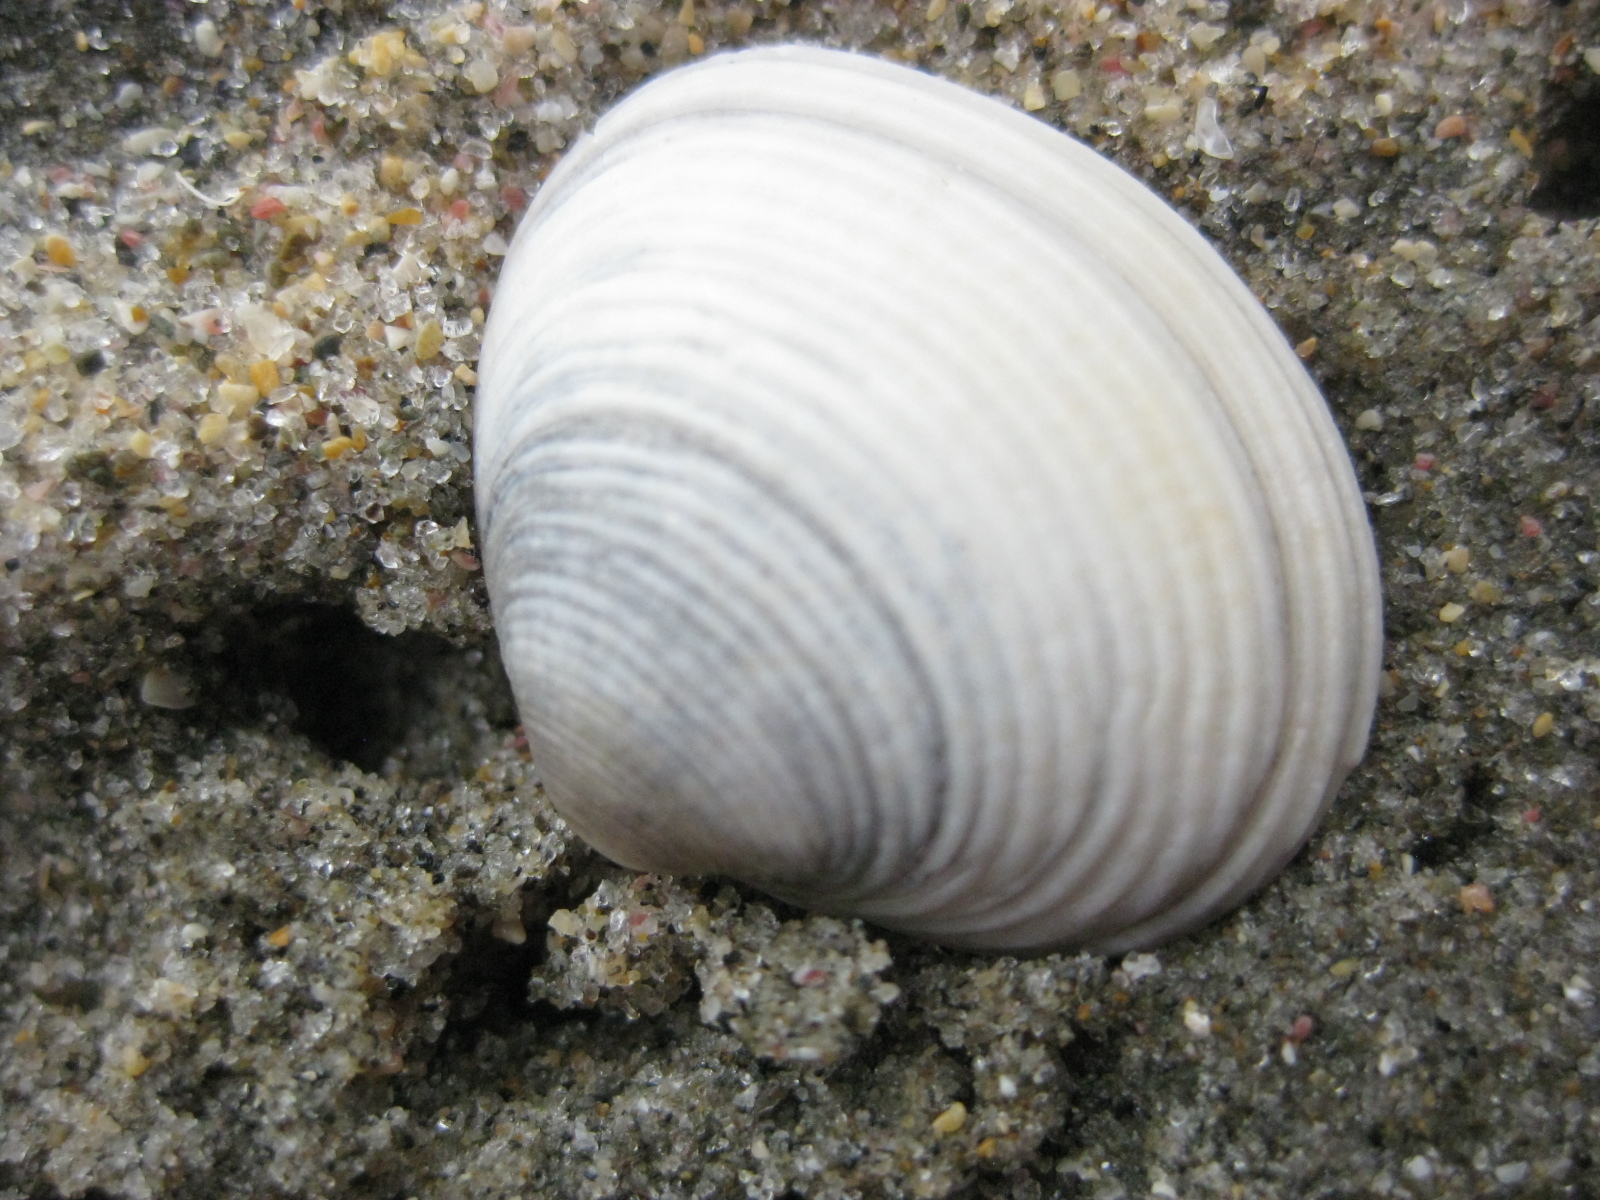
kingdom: Animalia
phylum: Mollusca
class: Bivalvia
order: Venerida
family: Veneridae
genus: Tawera
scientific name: Tawera spissa
